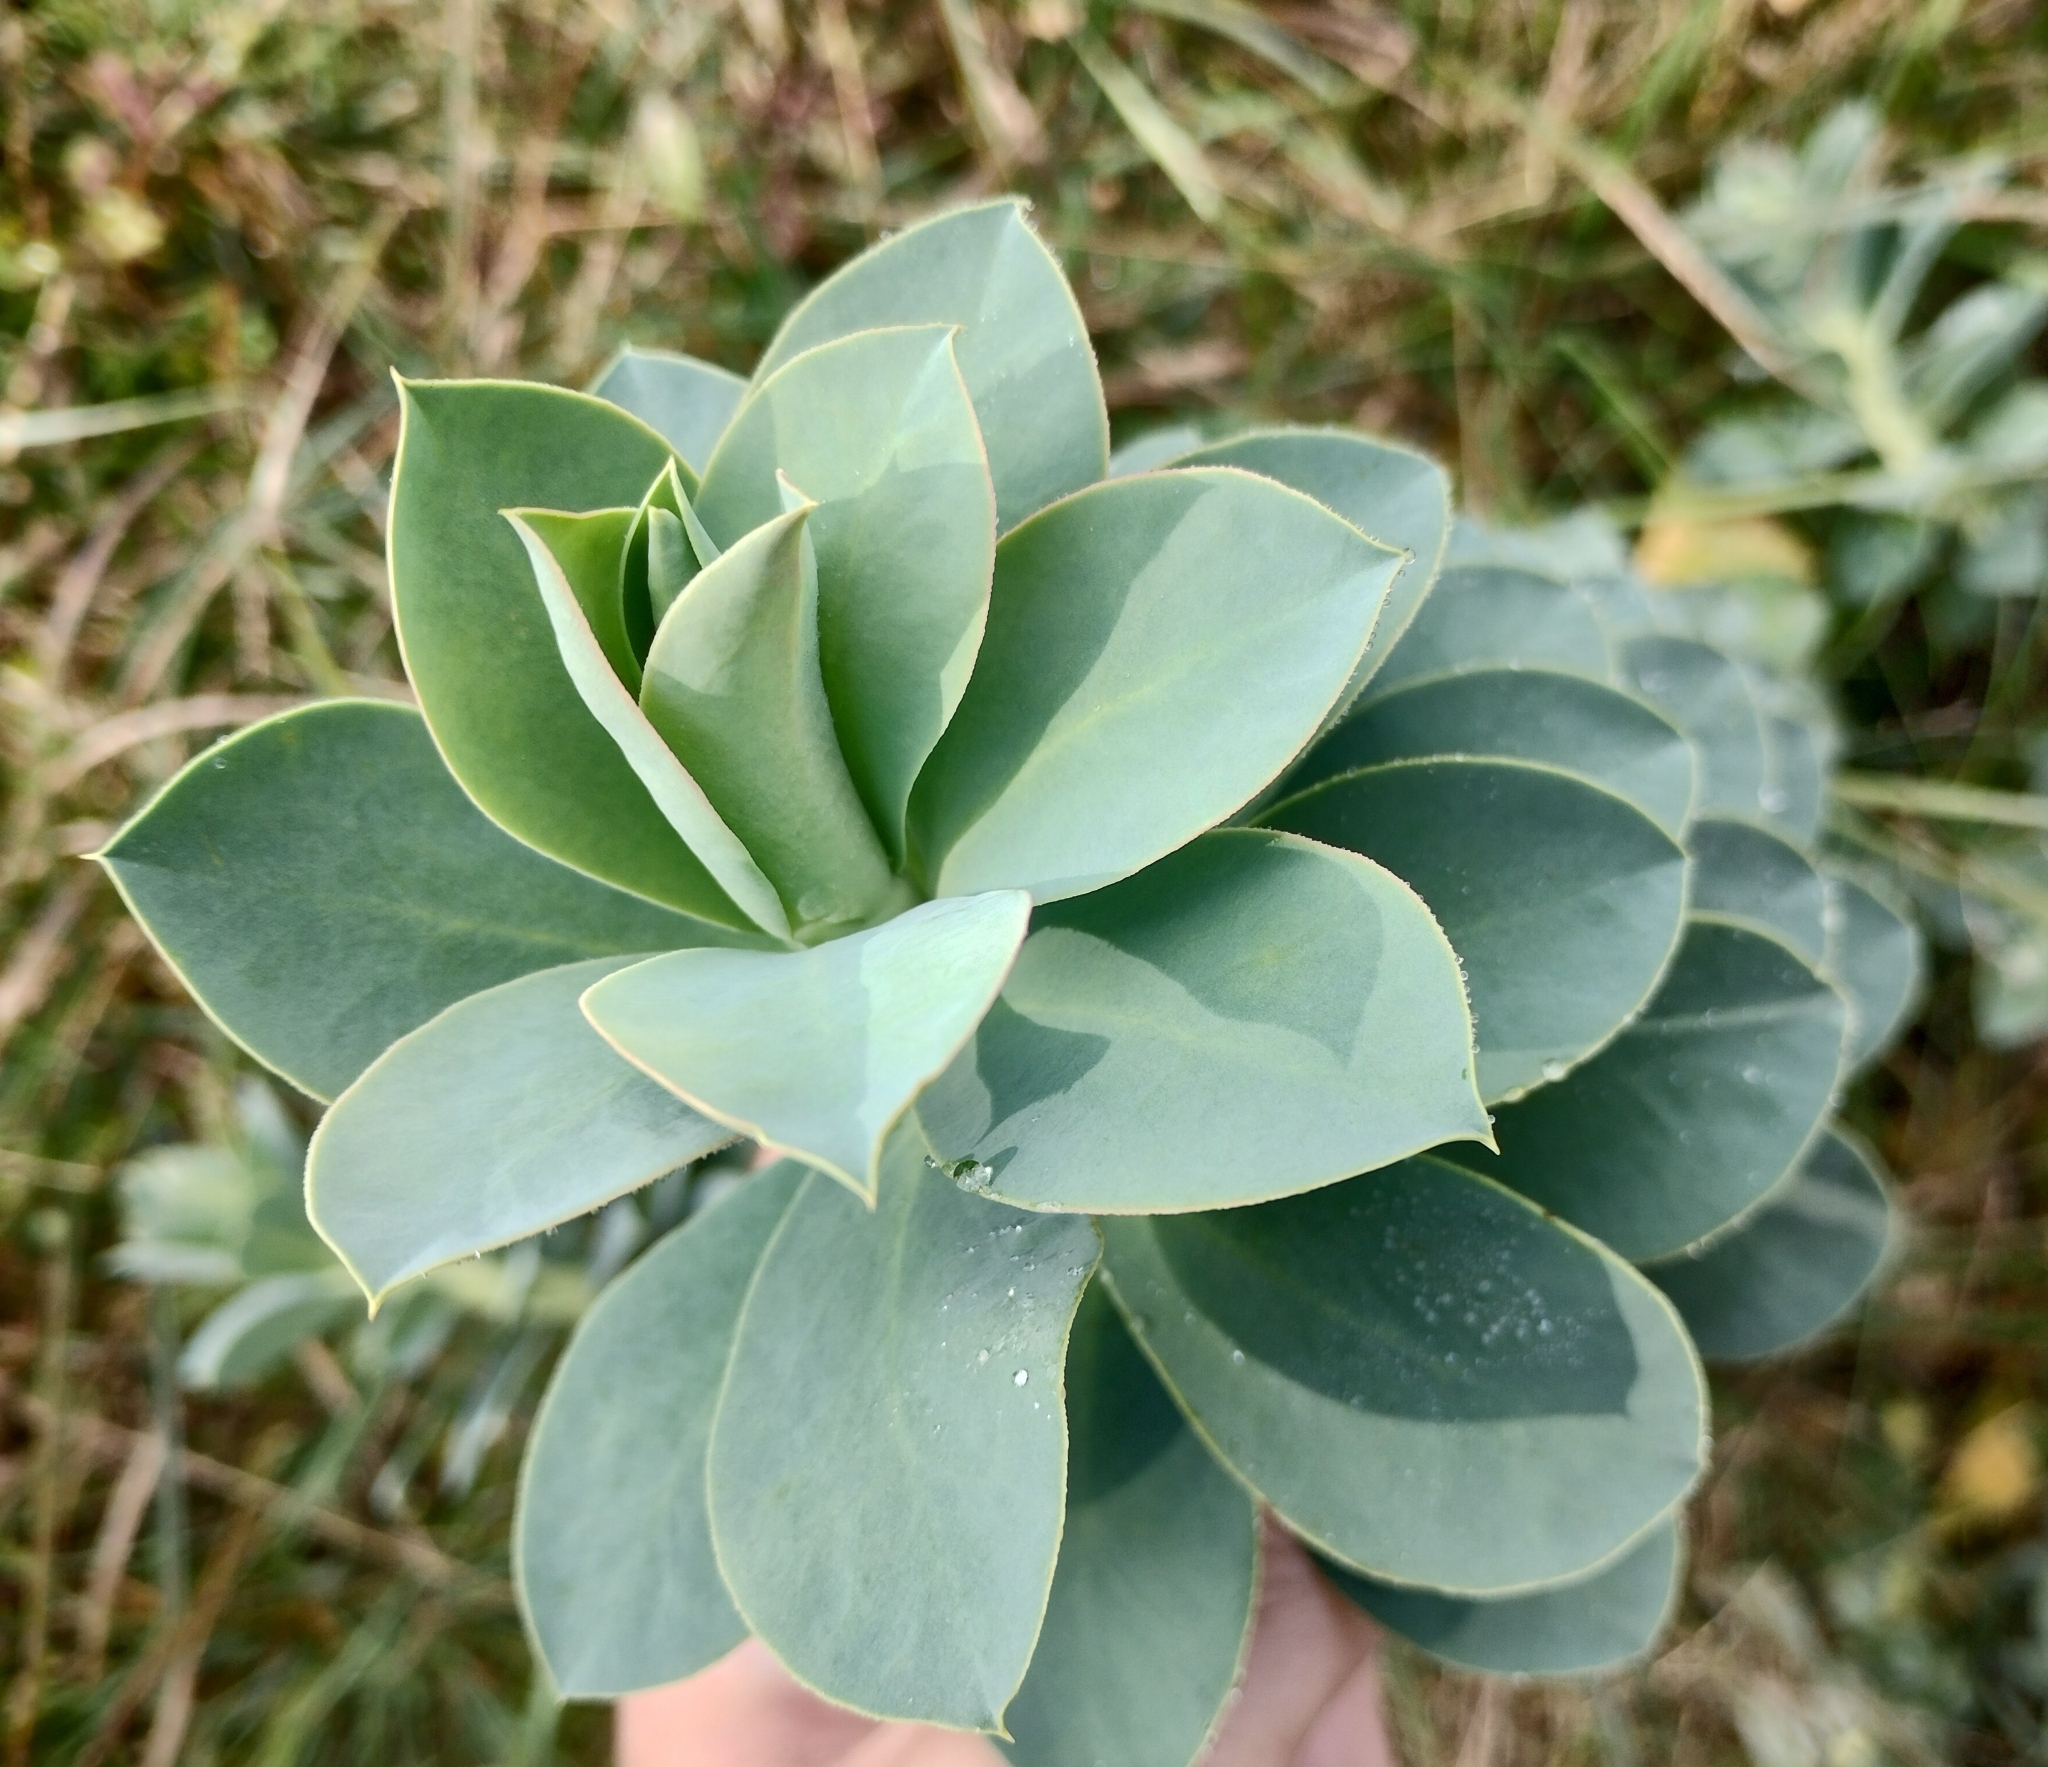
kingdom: Plantae
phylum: Tracheophyta
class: Magnoliopsida
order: Malpighiales
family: Euphorbiaceae
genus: Euphorbia
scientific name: Euphorbia myrsinites
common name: Myrtle spurge
